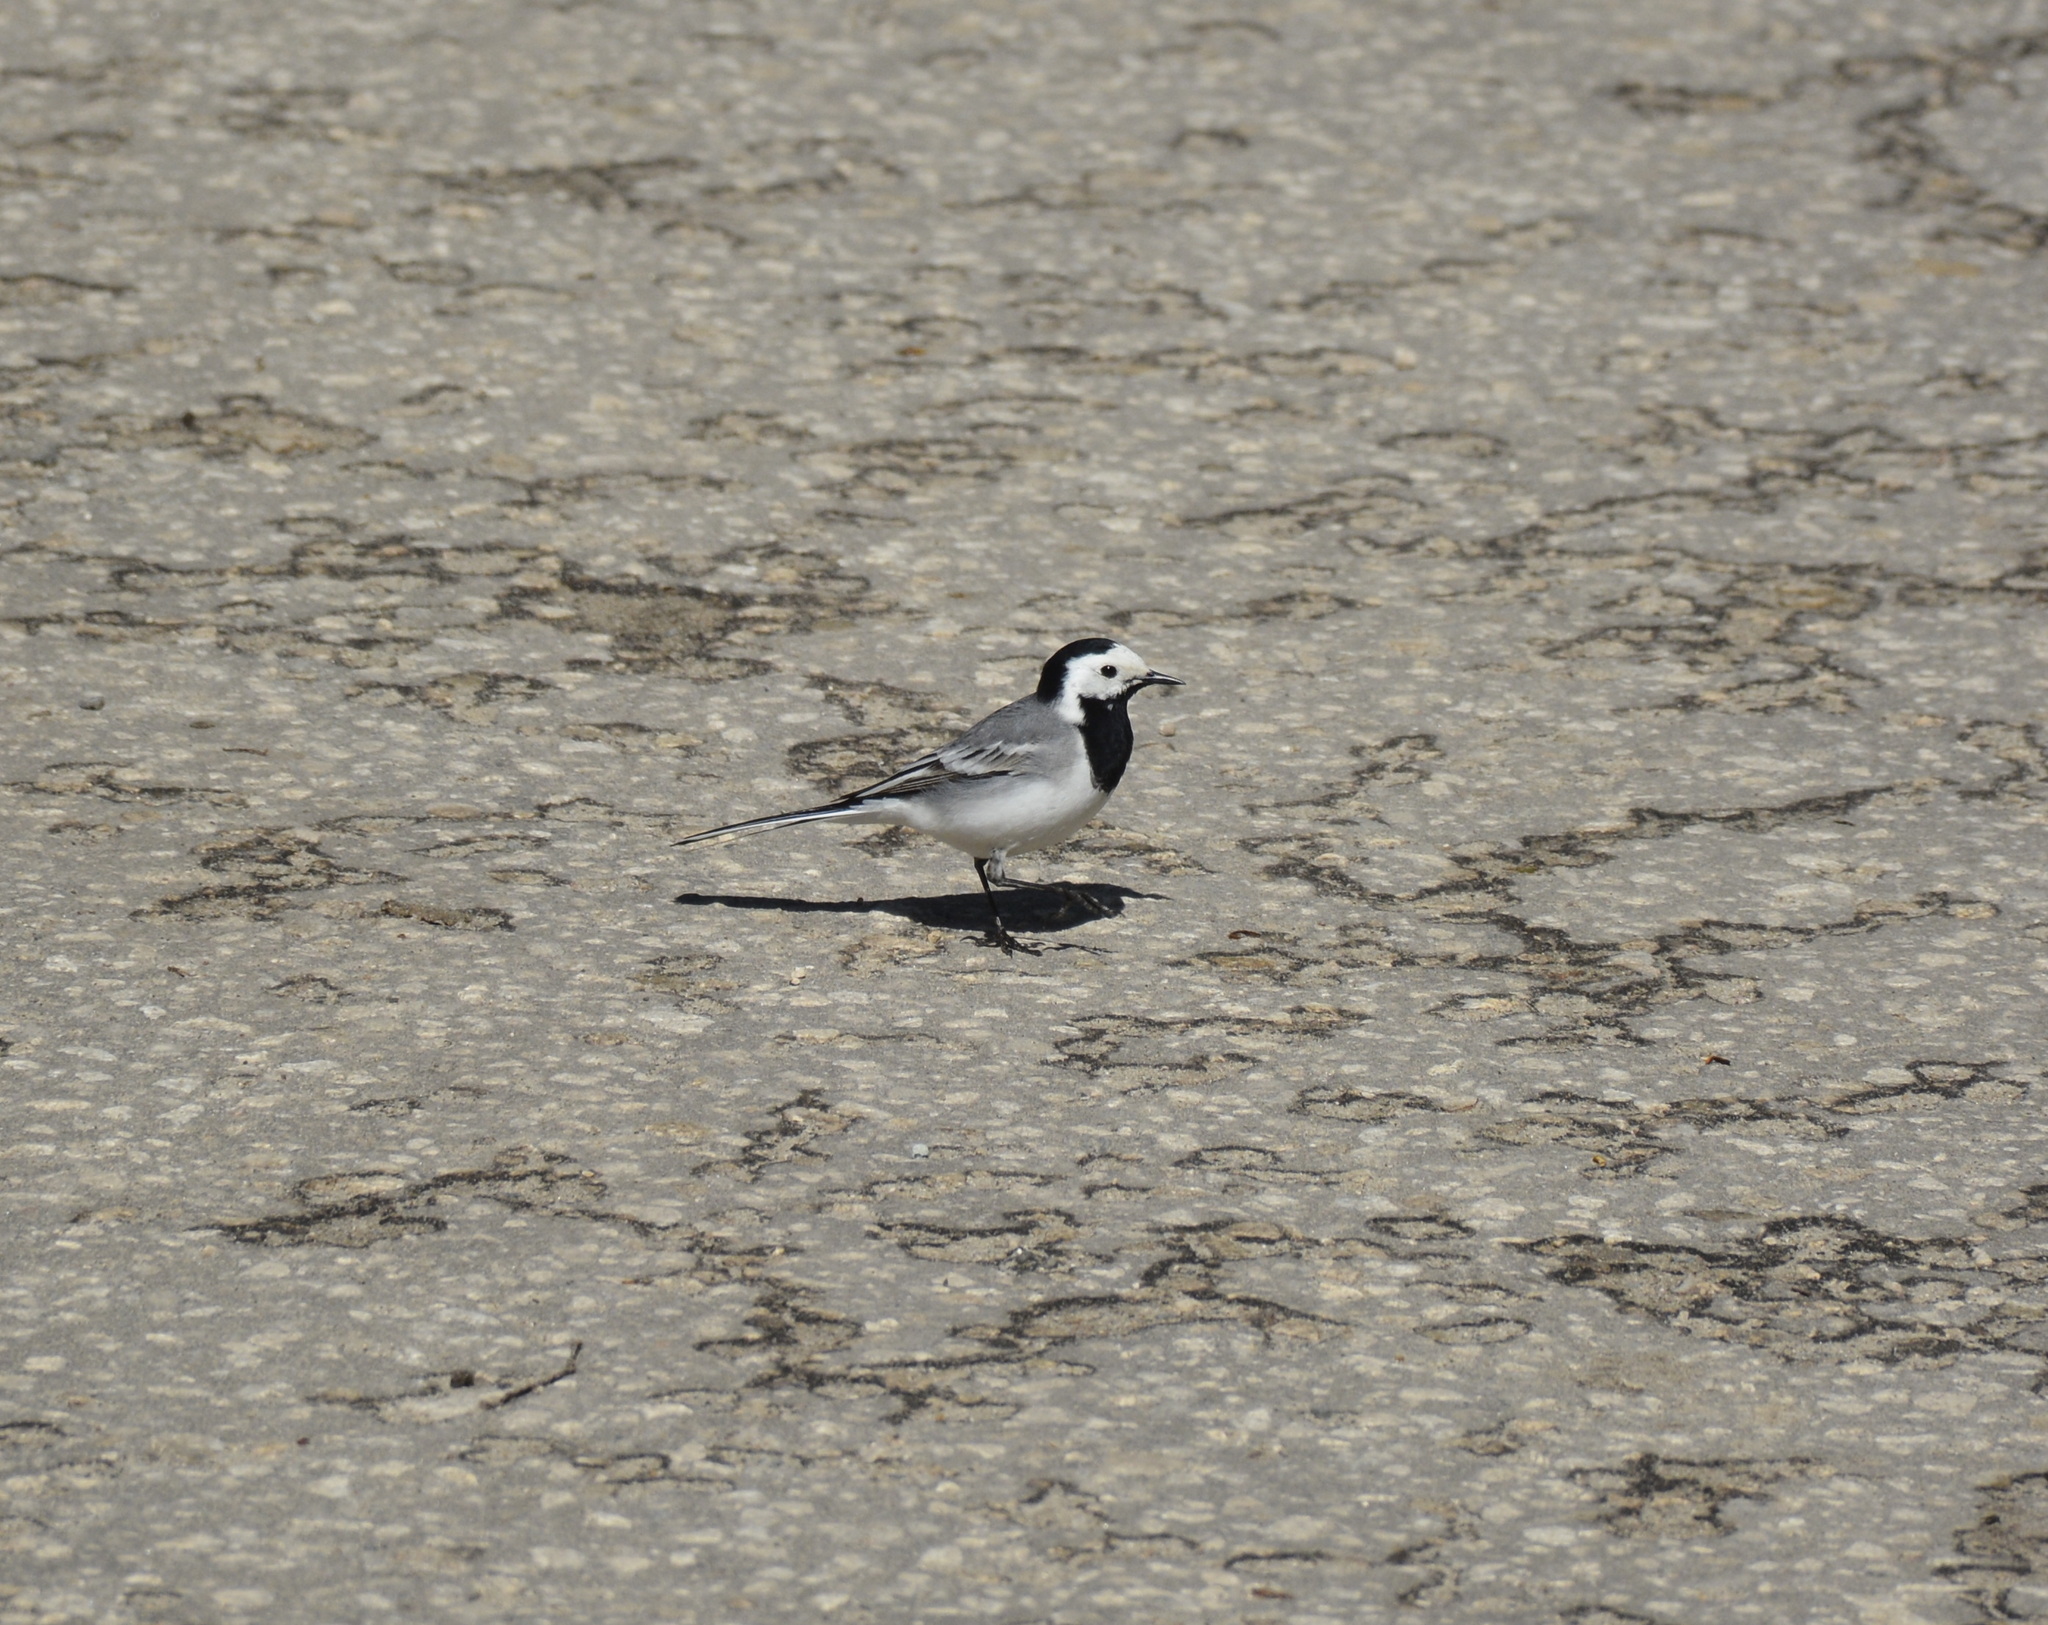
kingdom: Animalia
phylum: Chordata
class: Aves
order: Passeriformes
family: Motacillidae
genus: Motacilla
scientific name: Motacilla alba
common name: White wagtail
